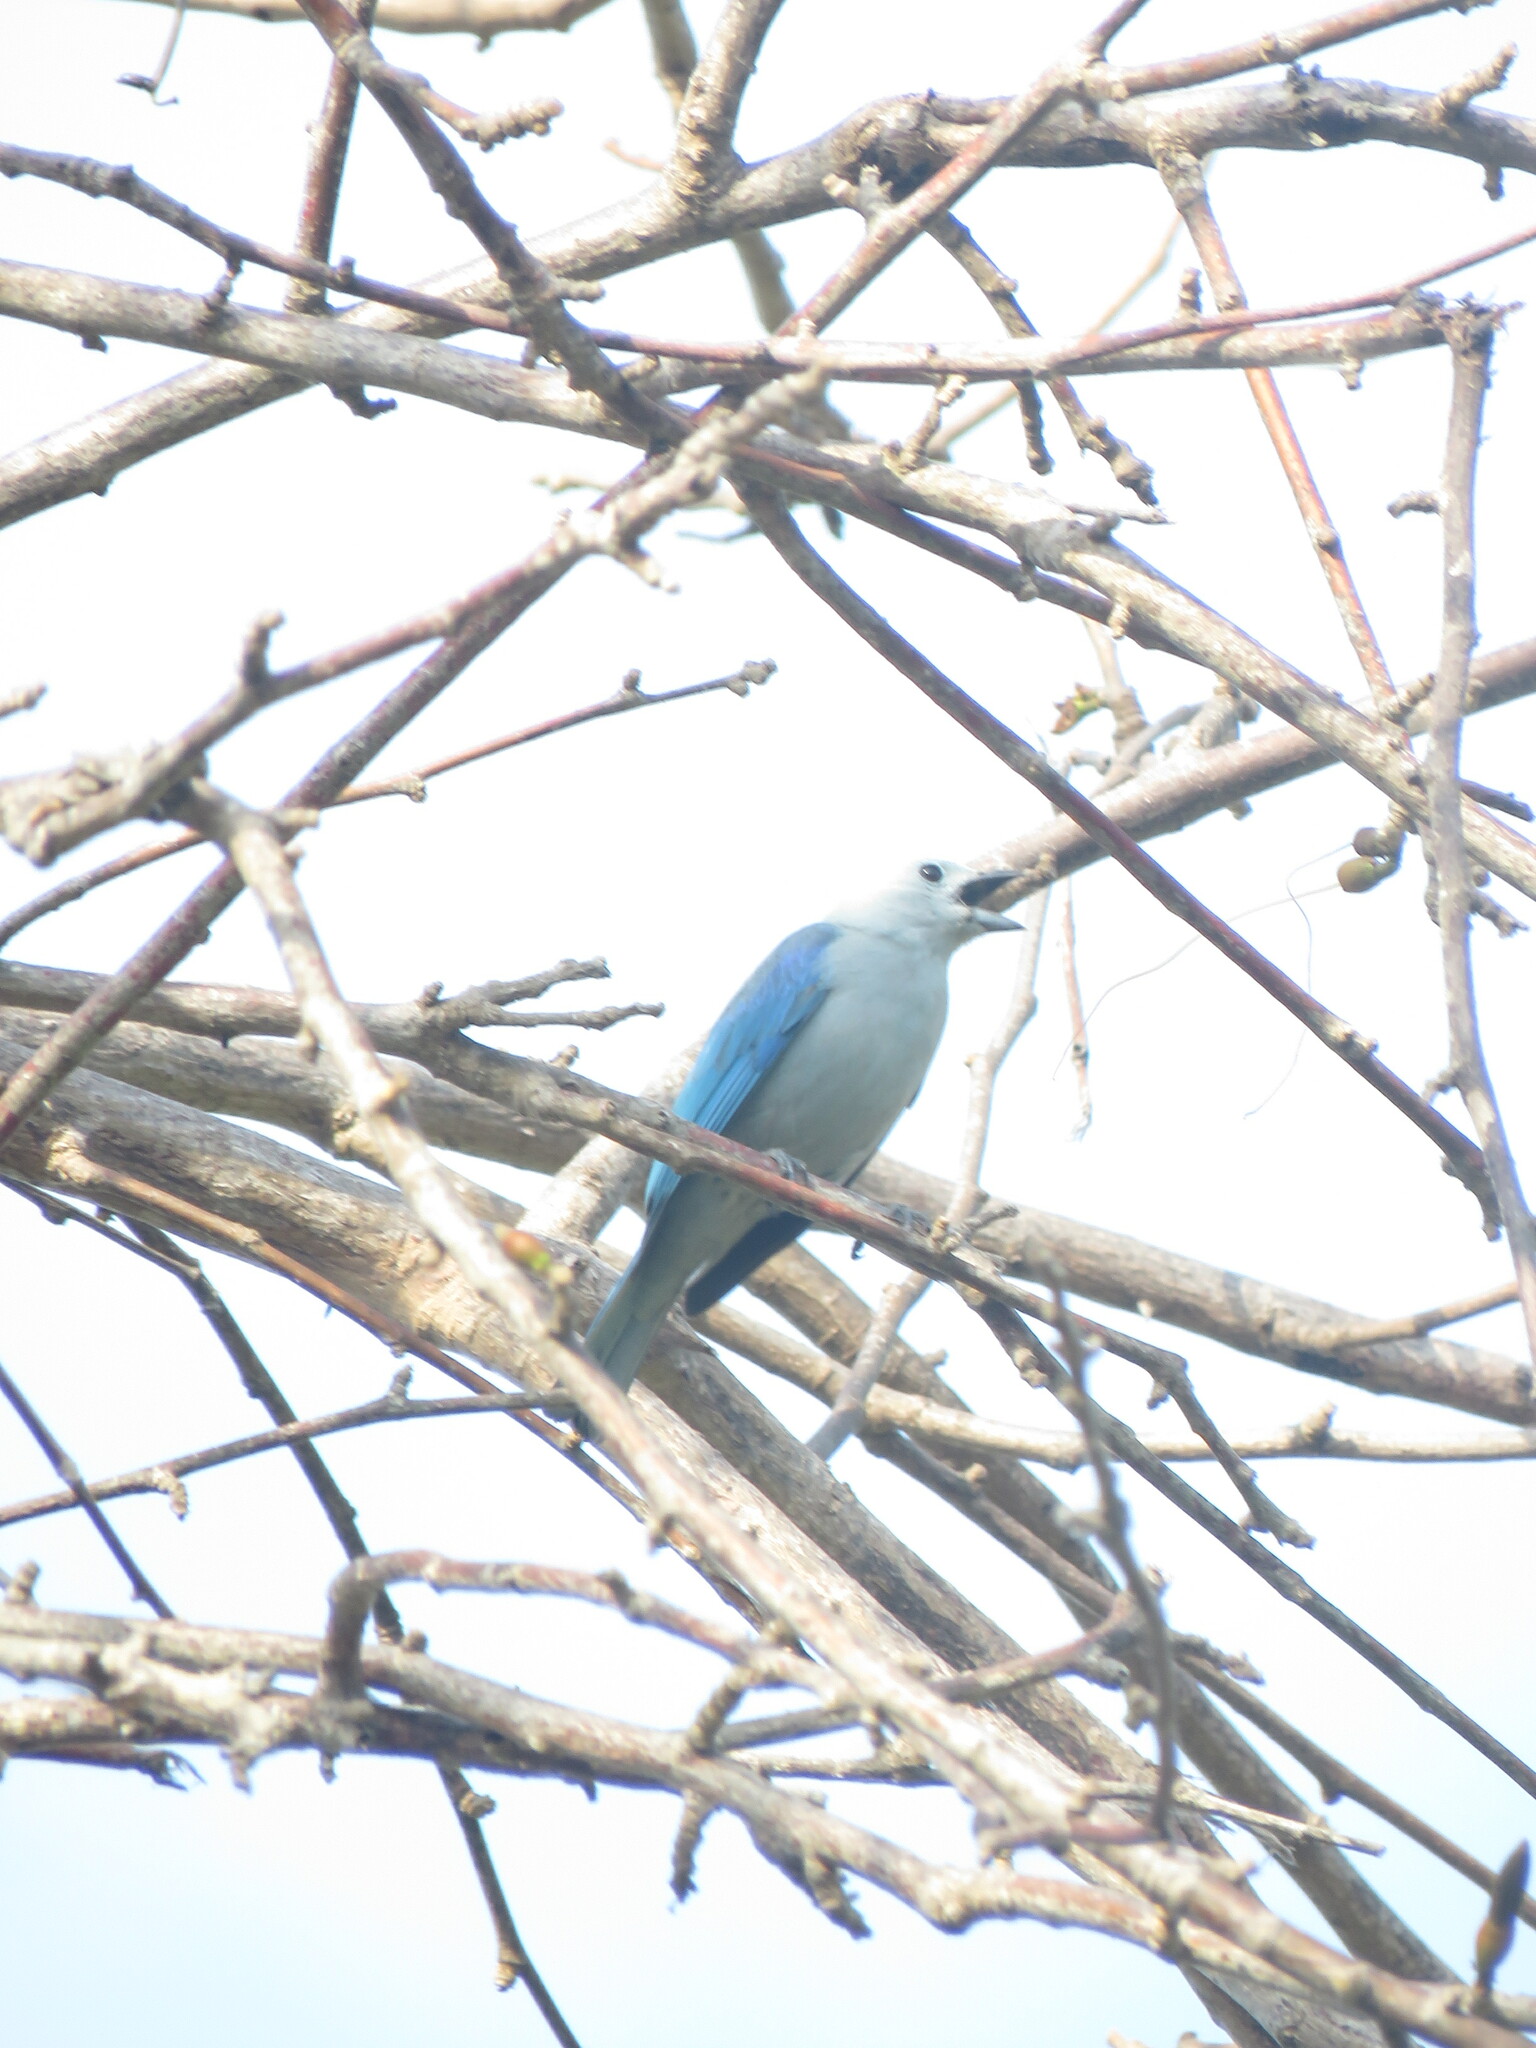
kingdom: Animalia
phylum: Chordata
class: Aves
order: Passeriformes
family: Thraupidae
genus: Thraupis
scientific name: Thraupis episcopus
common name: Blue-grey tanager
